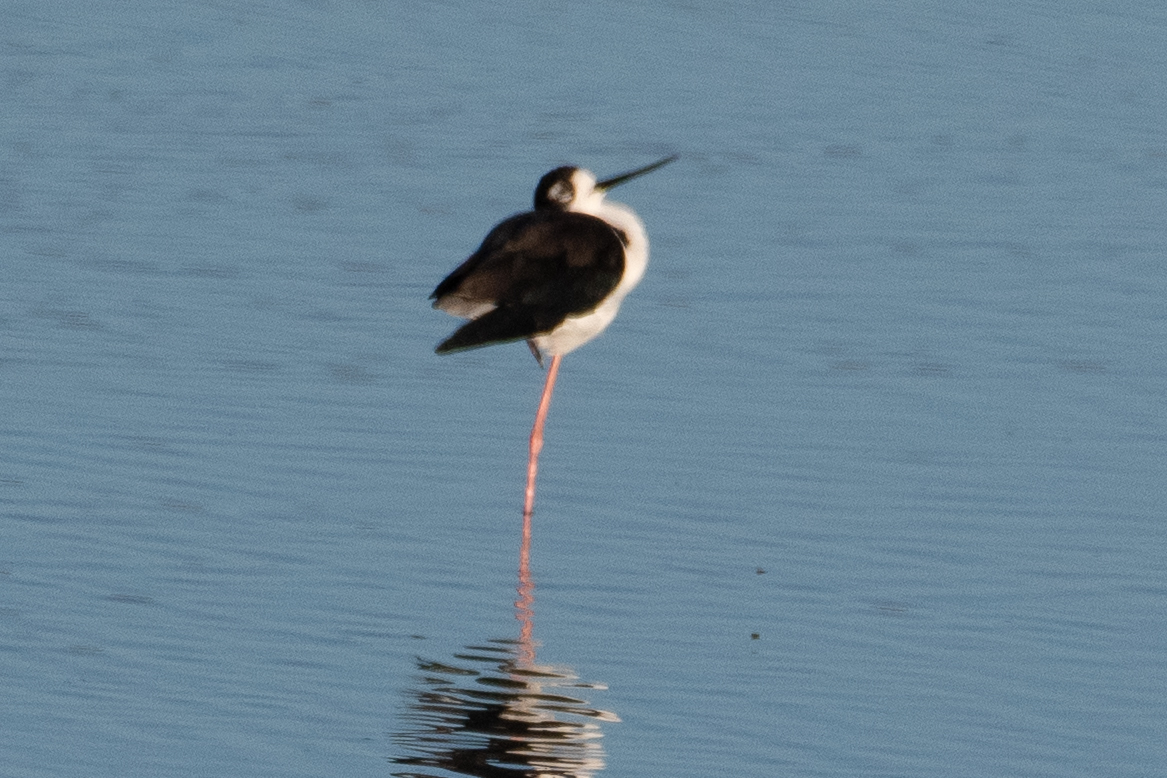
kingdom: Animalia
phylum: Chordata
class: Aves
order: Charadriiformes
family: Recurvirostridae
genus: Himantopus
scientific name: Himantopus mexicanus
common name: Black-necked stilt
